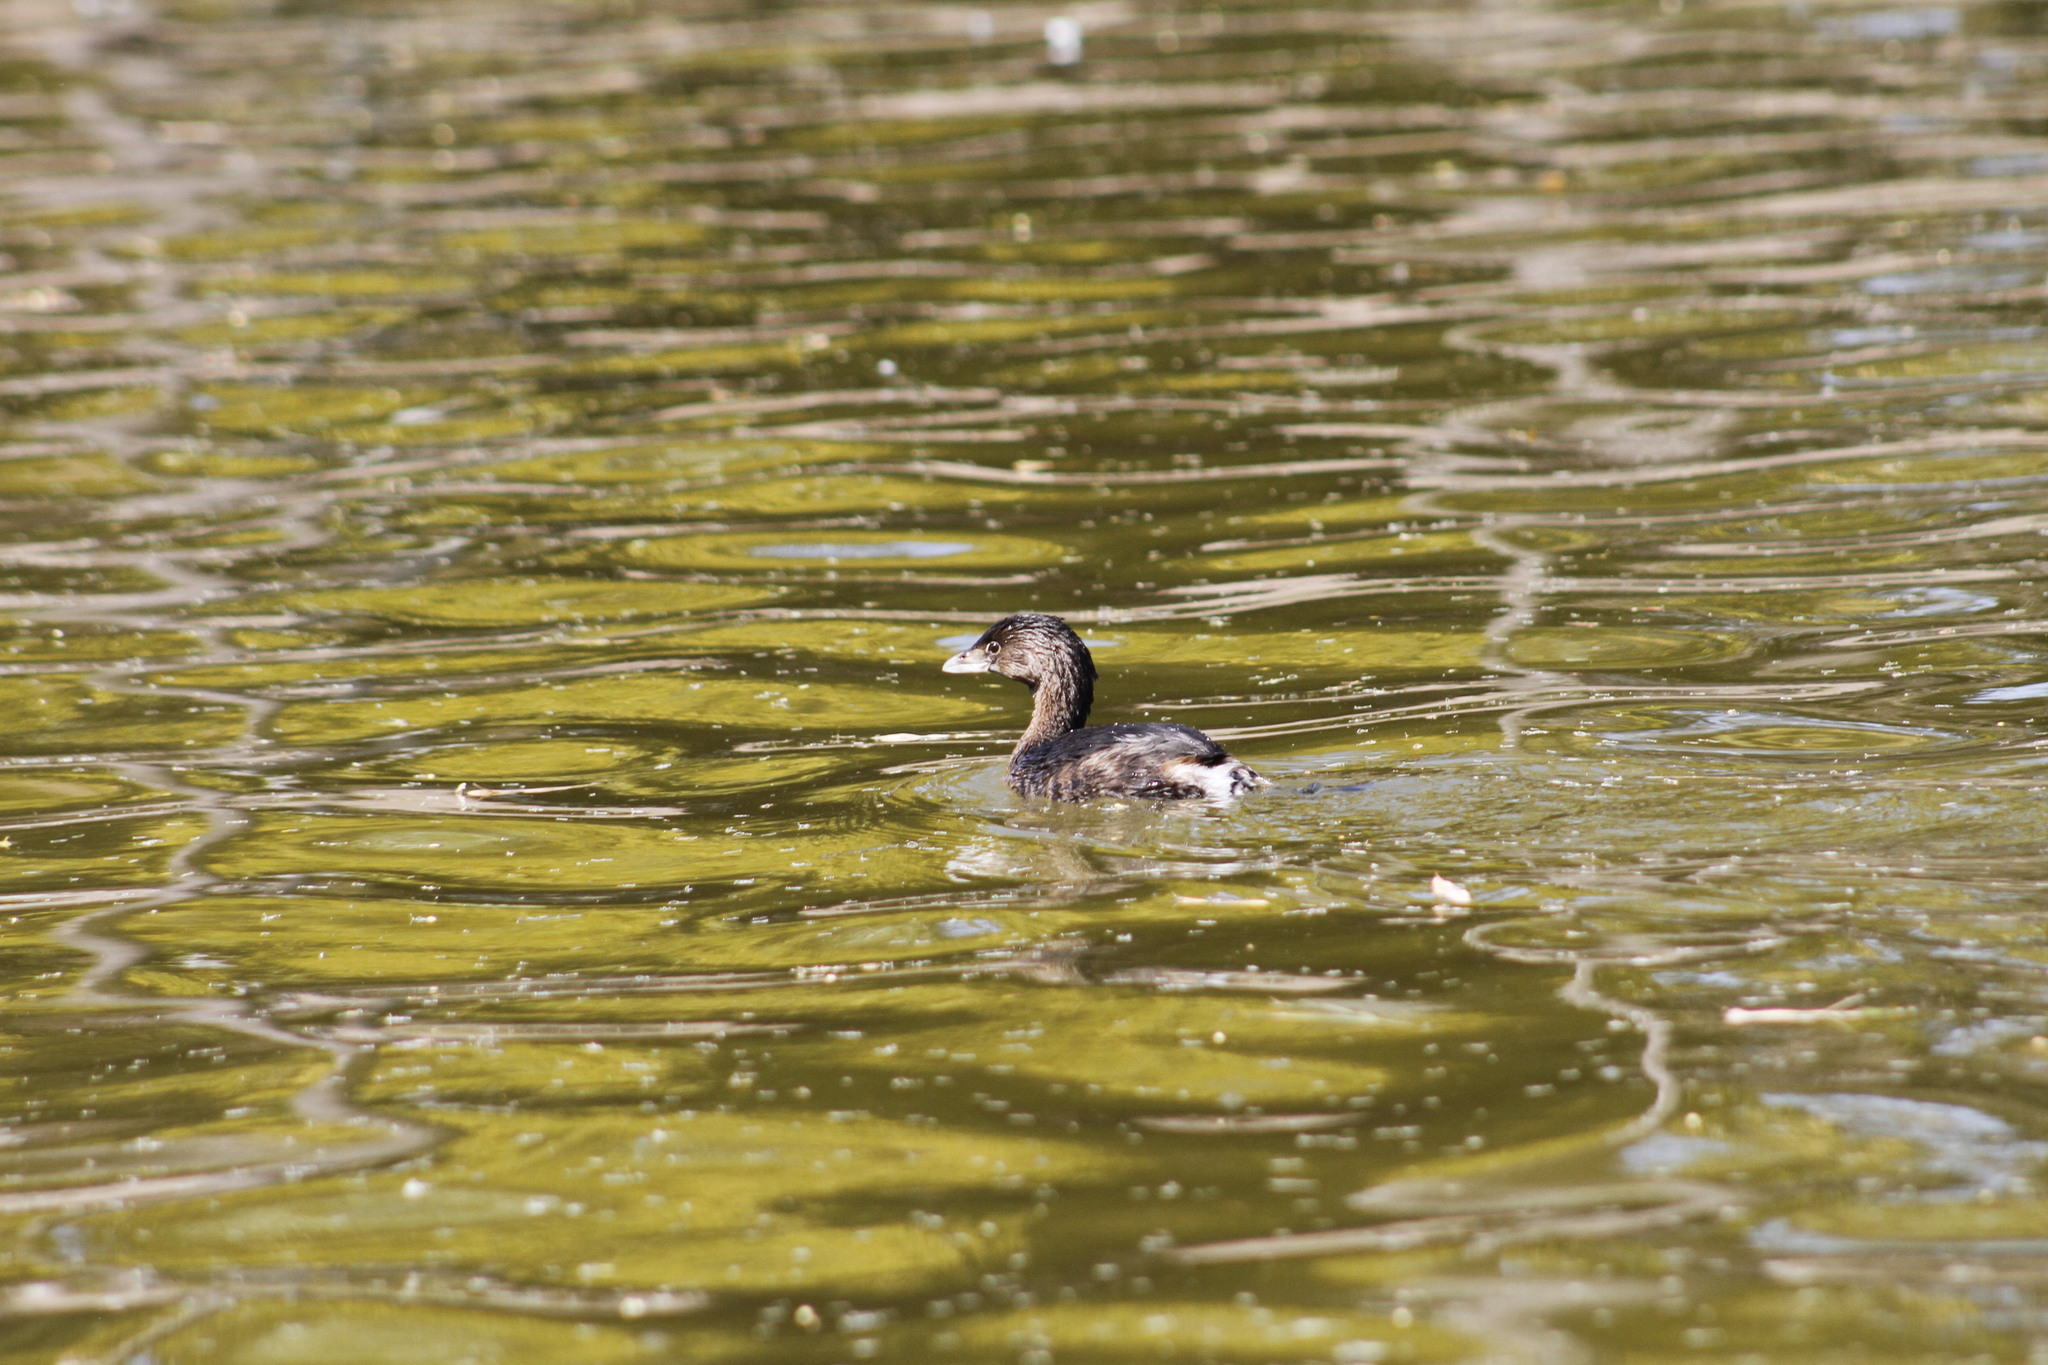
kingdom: Animalia
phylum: Chordata
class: Aves
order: Podicipediformes
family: Podicipedidae
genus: Podilymbus
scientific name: Podilymbus podiceps
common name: Pied-billed grebe
